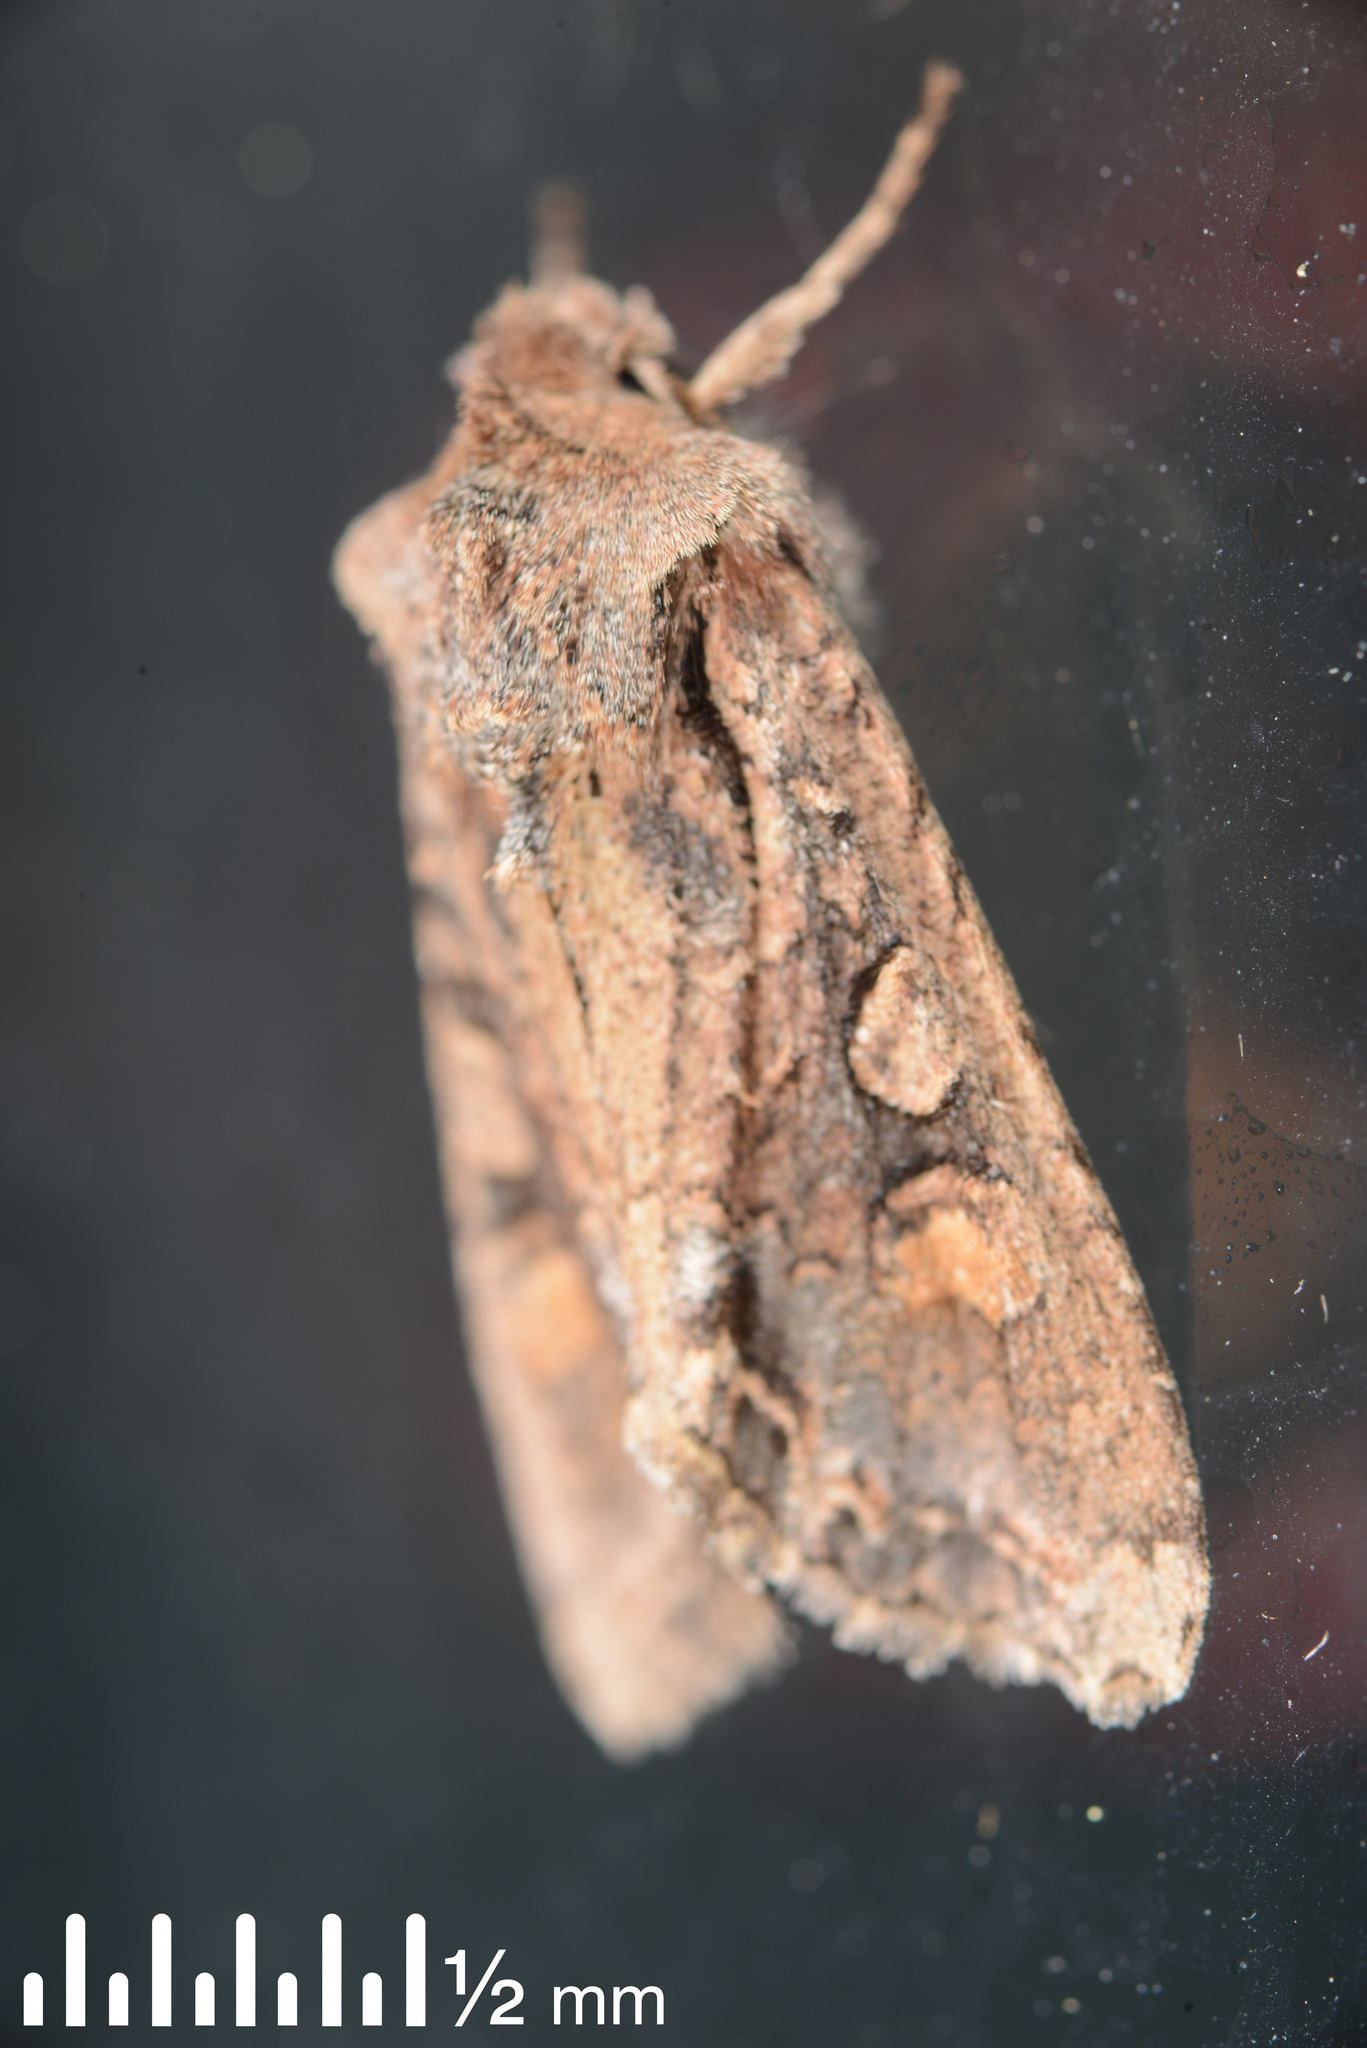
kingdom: Animalia
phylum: Arthropoda
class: Insecta
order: Lepidoptera
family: Noctuidae
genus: Ichneutica
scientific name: Ichneutica insignis
